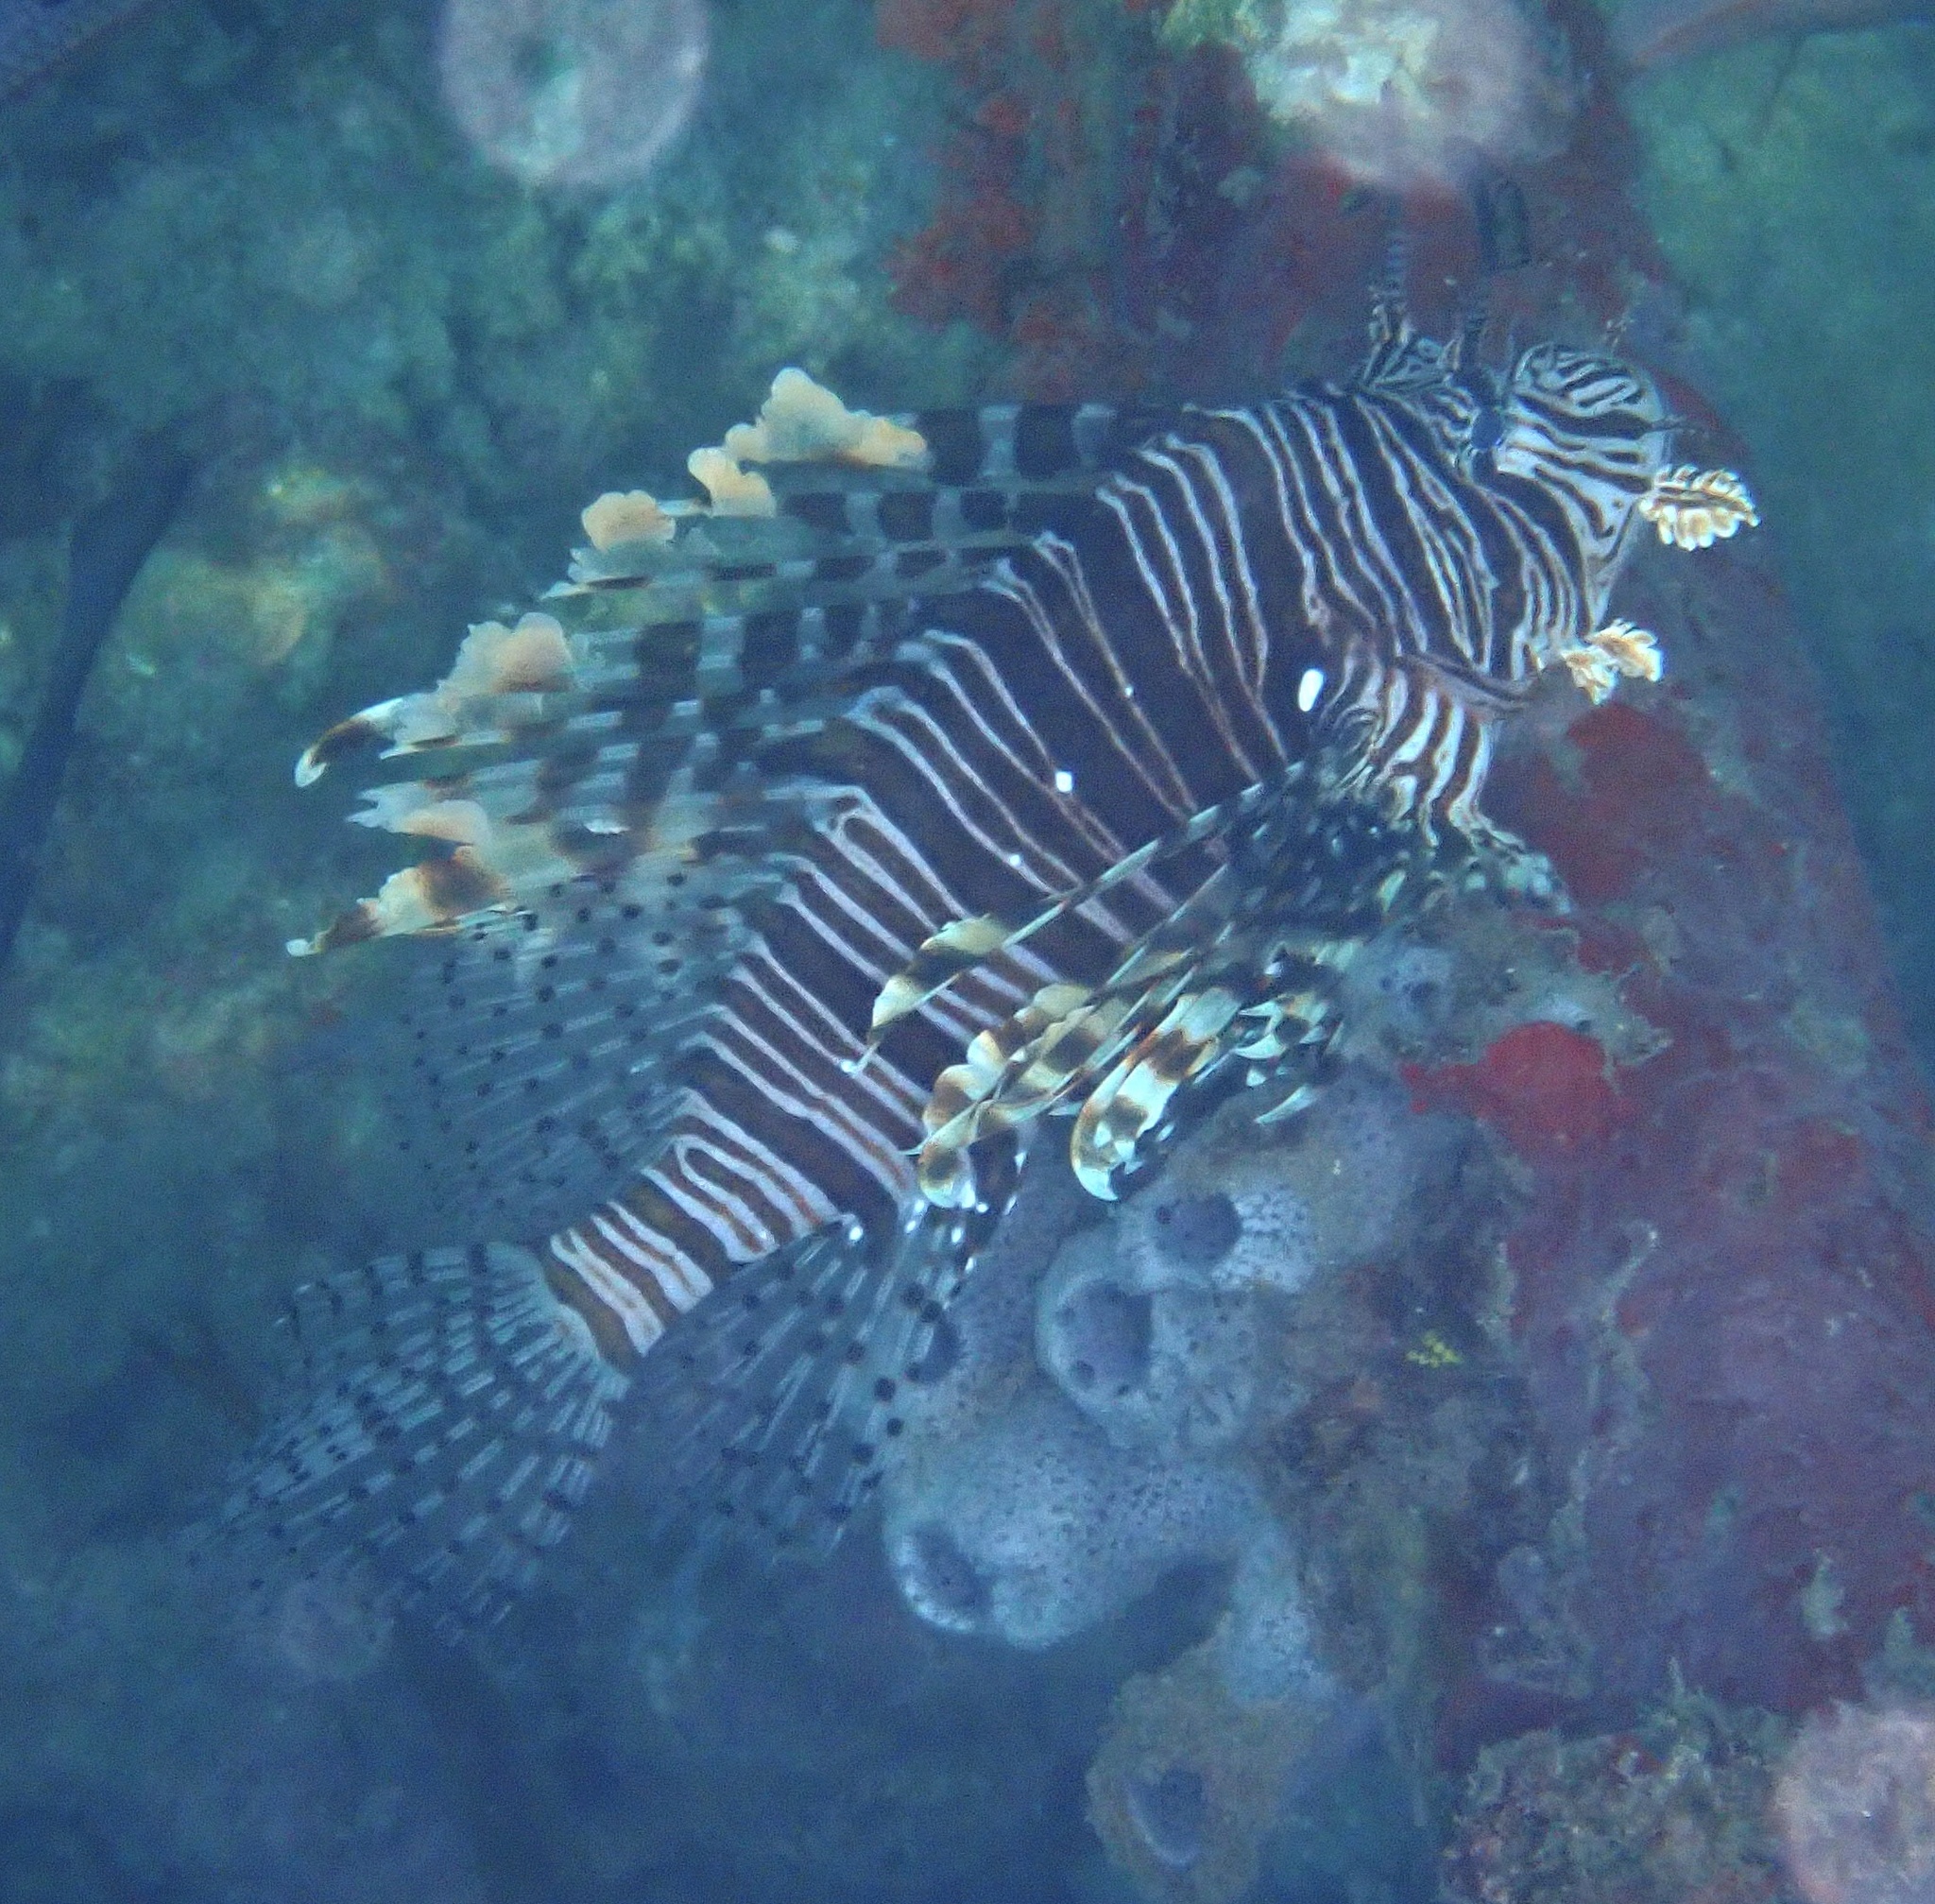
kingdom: Animalia
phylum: Chordata
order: Scorpaeniformes
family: Scorpaenidae
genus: Pterois
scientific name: Pterois volitans
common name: Lionfish
